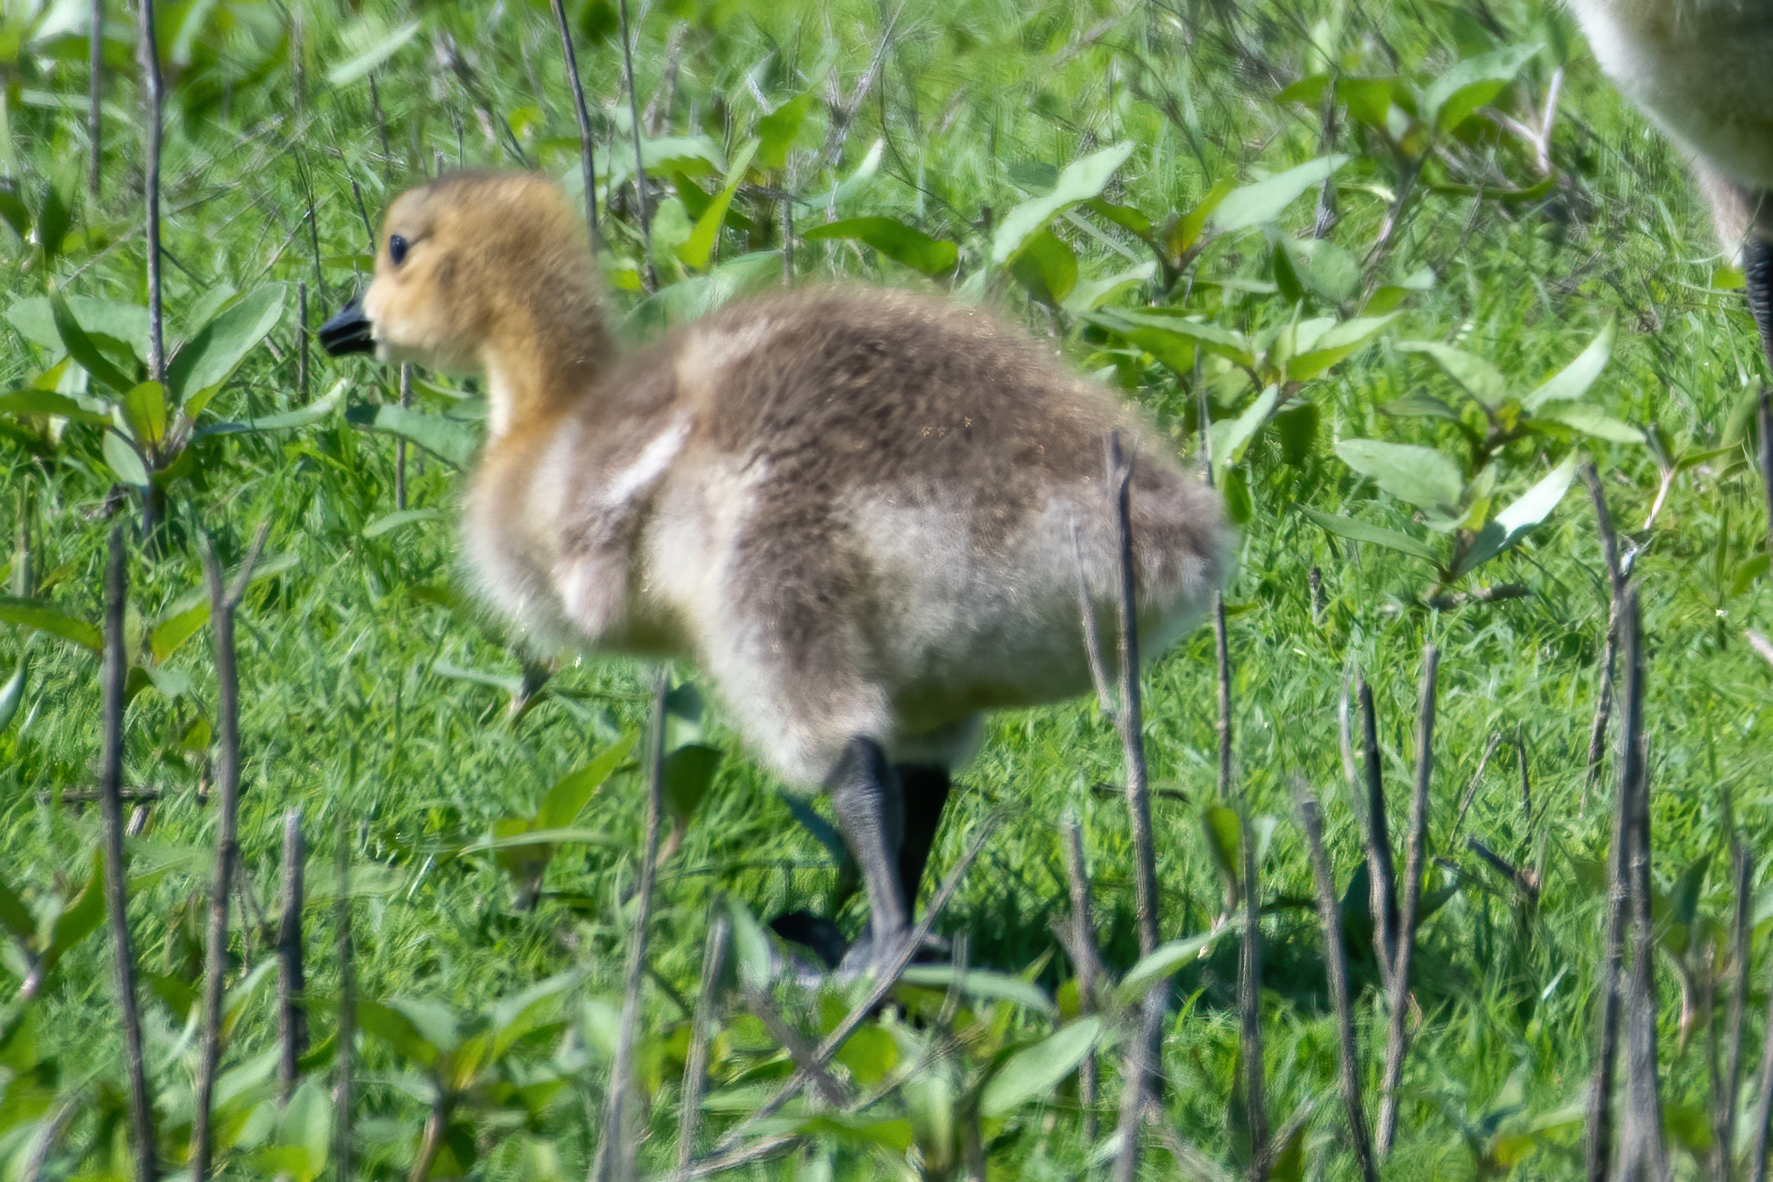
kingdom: Animalia
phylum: Chordata
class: Aves
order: Anseriformes
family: Anatidae
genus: Branta
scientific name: Branta canadensis
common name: Canada goose
